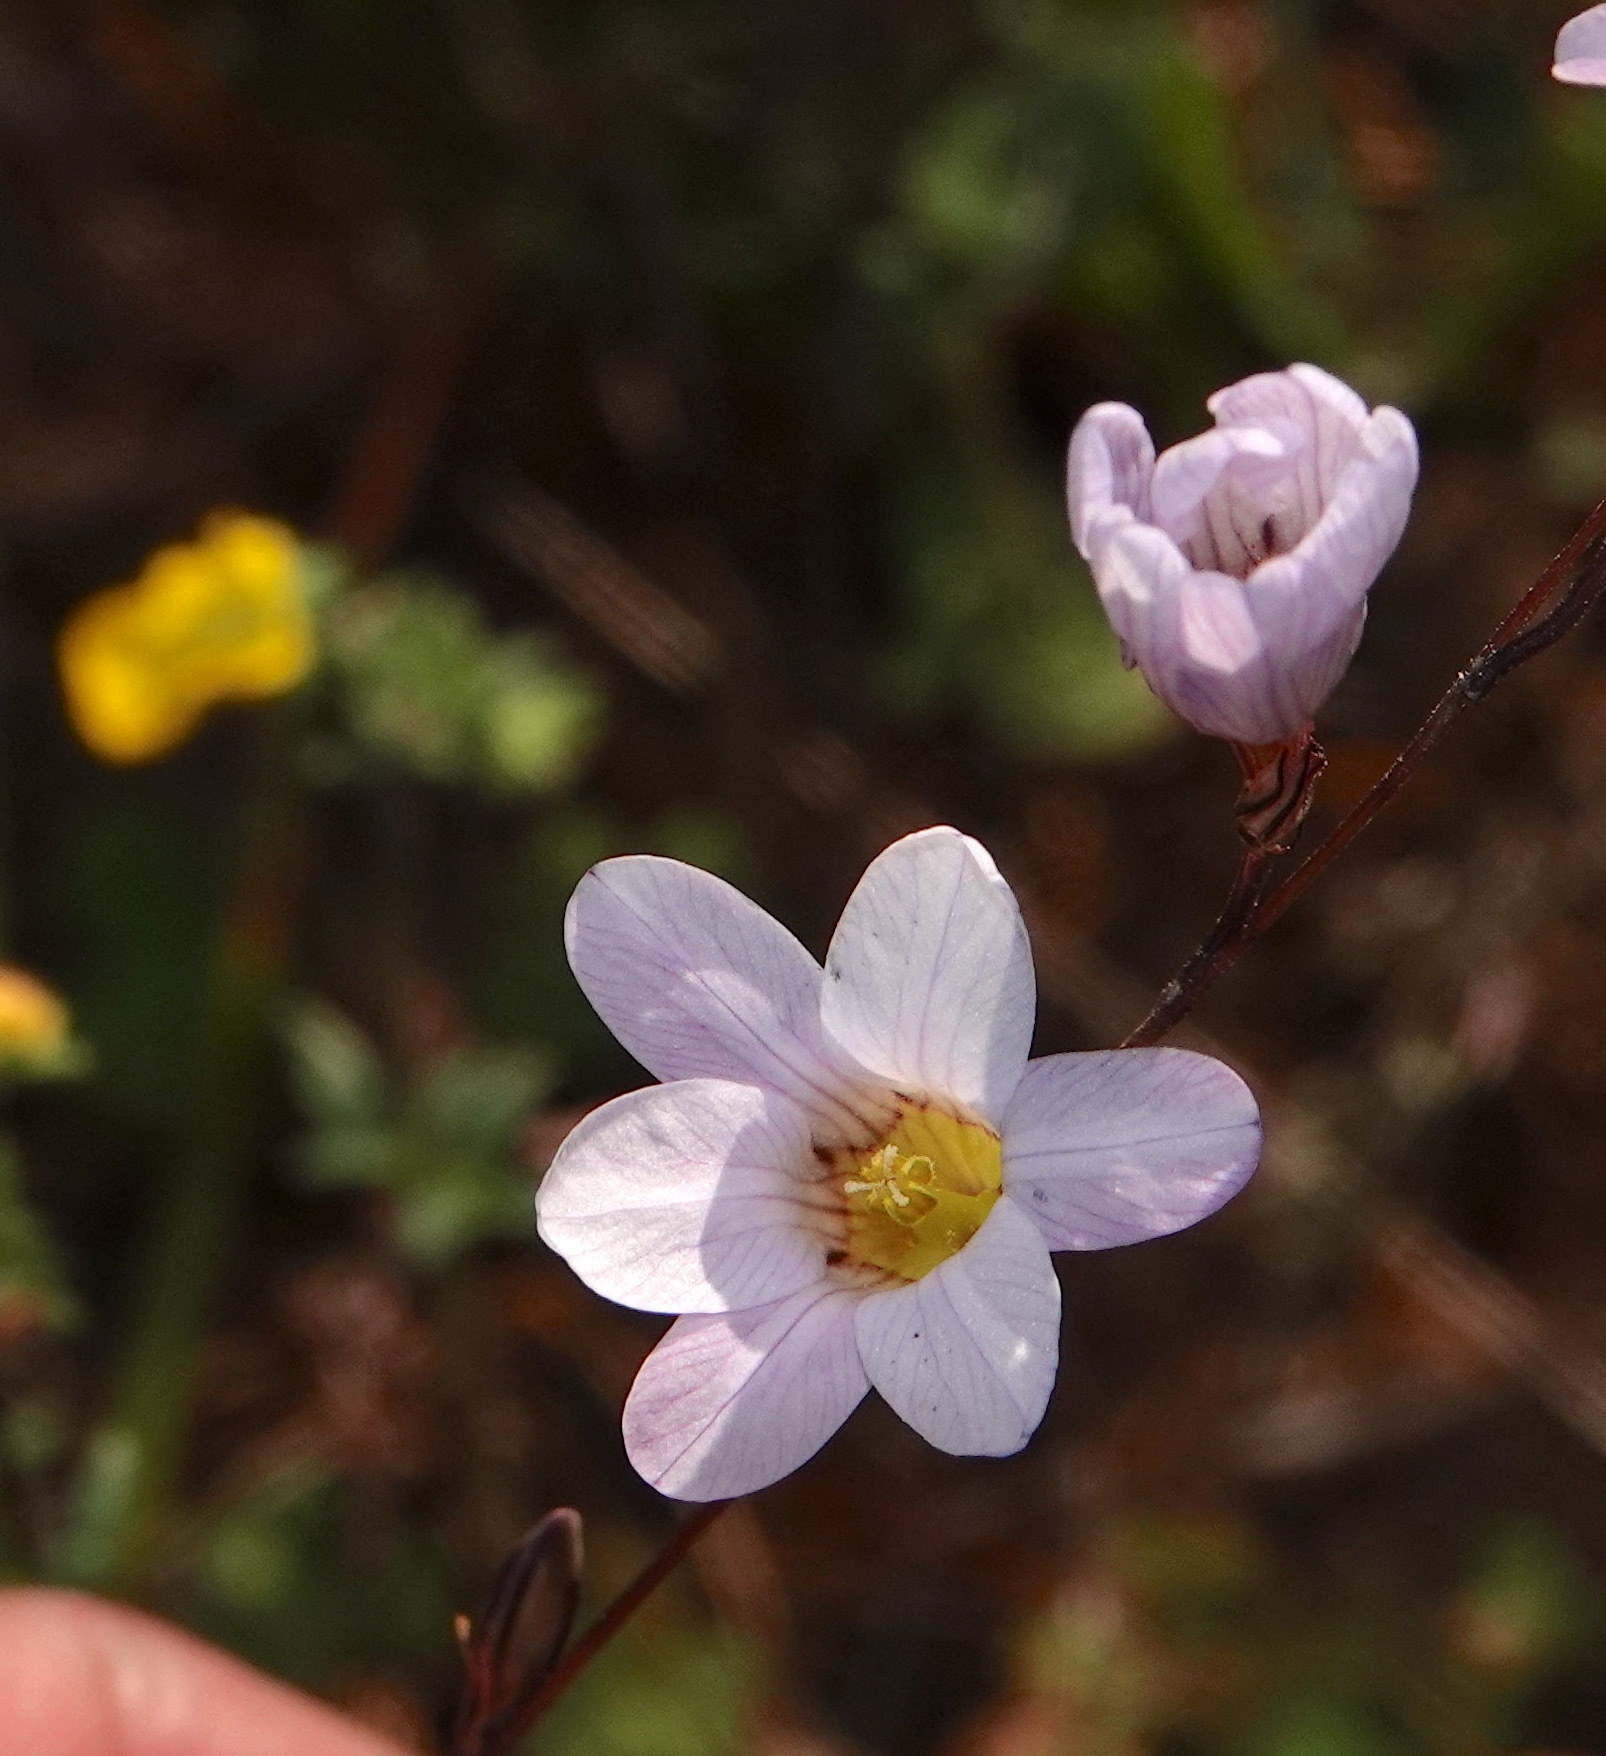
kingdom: Plantae
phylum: Tracheophyta
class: Liliopsida
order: Asparagales
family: Iridaceae
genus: Ixia
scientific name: Ixia rapunculoides
